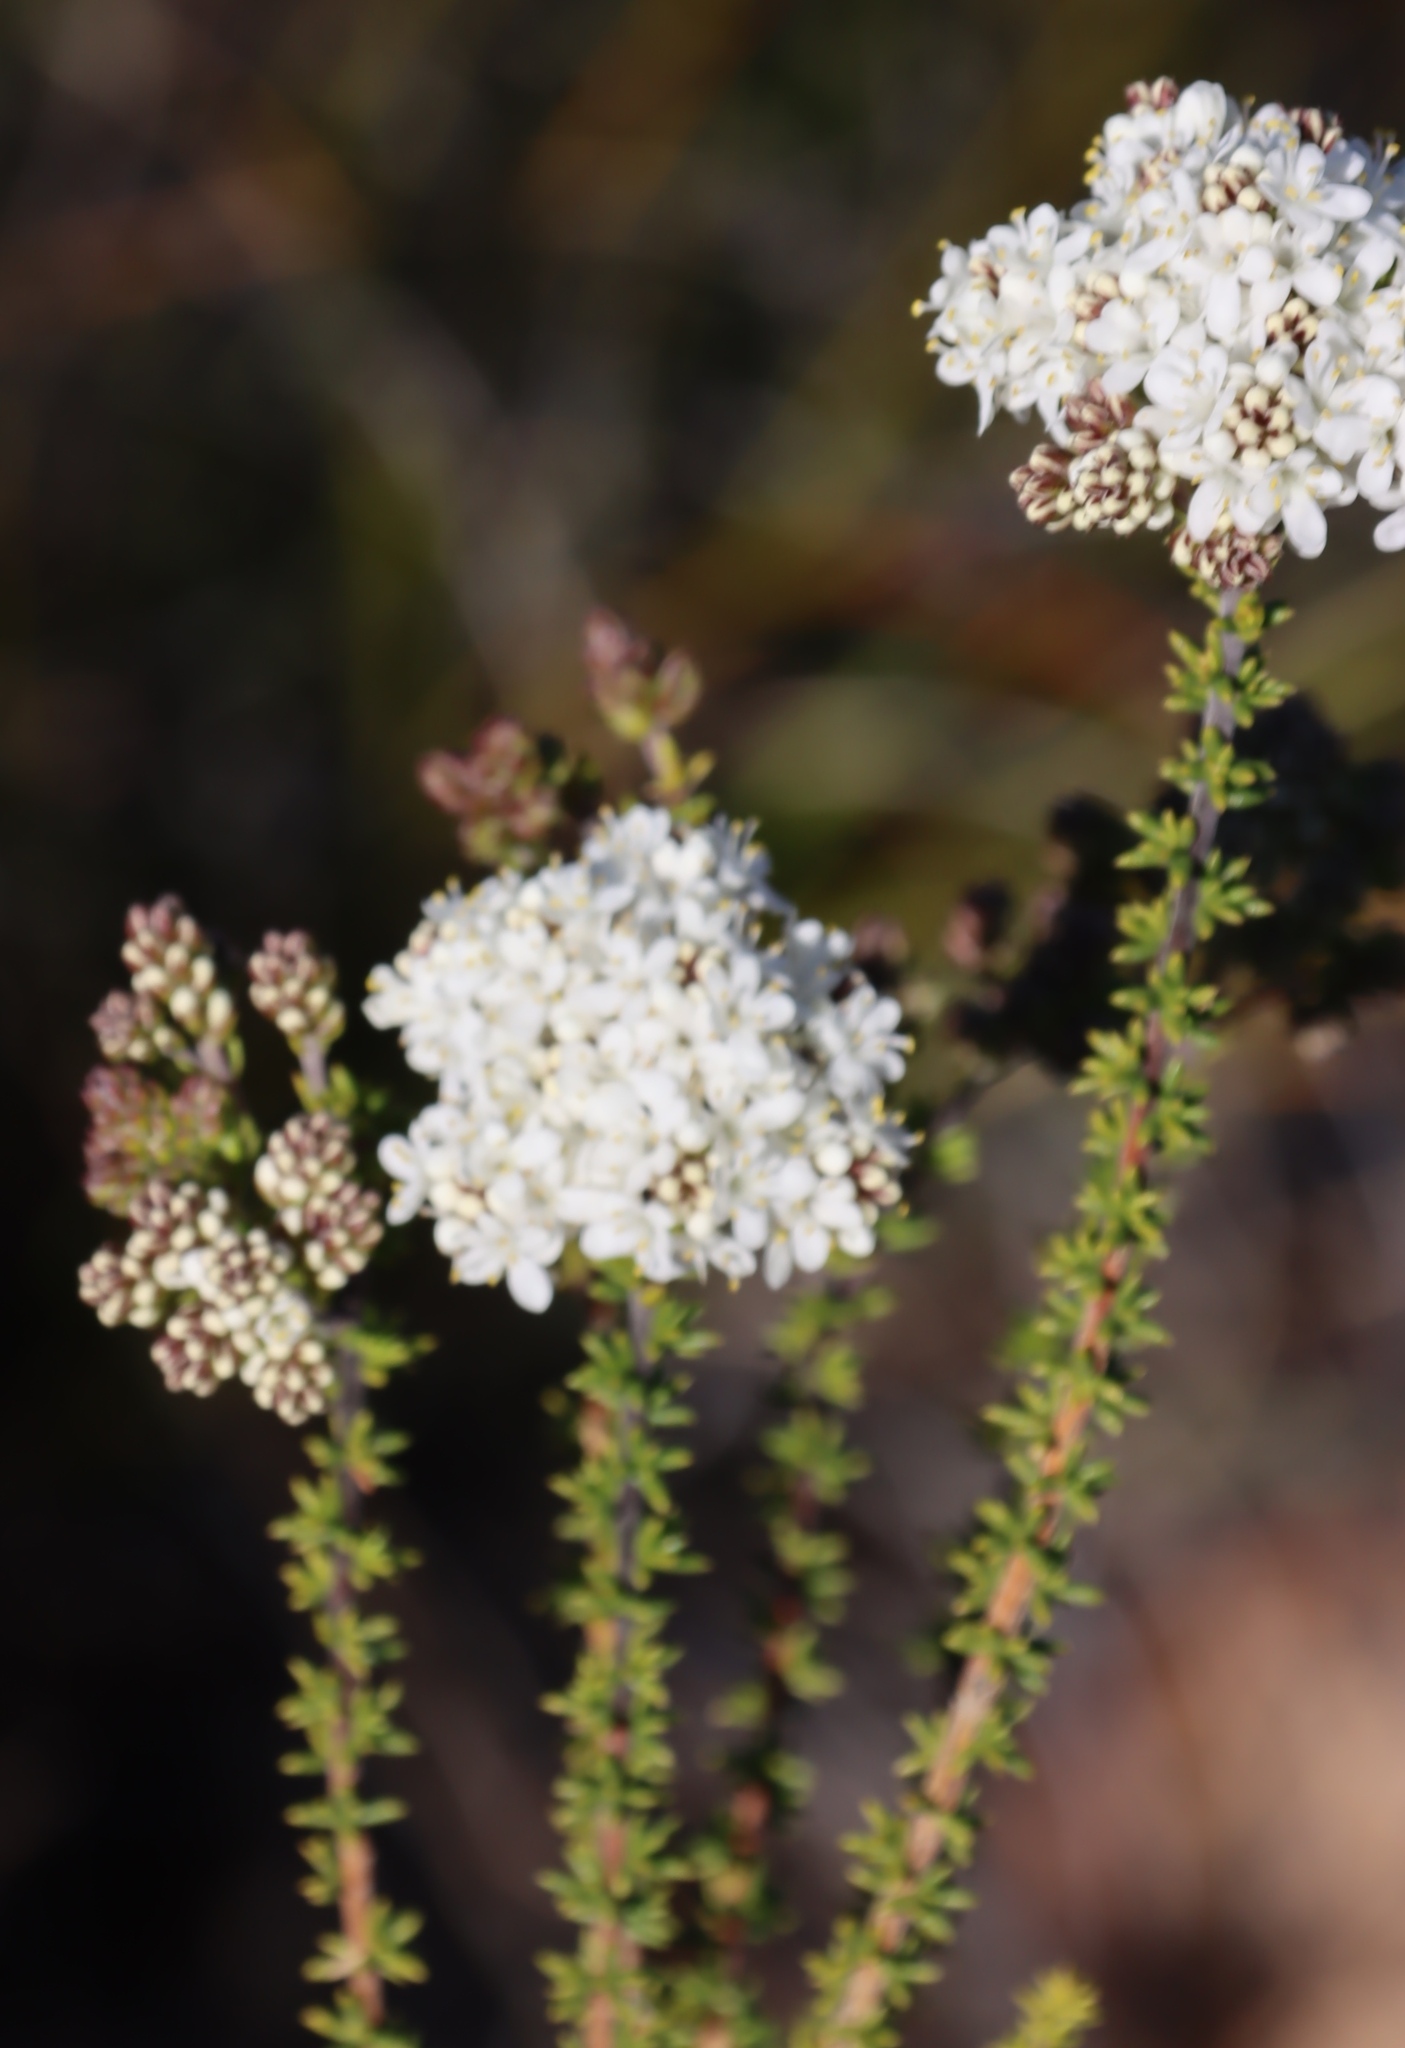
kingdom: Plantae
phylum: Tracheophyta
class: Magnoliopsida
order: Lamiales
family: Scrophulariaceae
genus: Selago
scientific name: Selago dolosa
